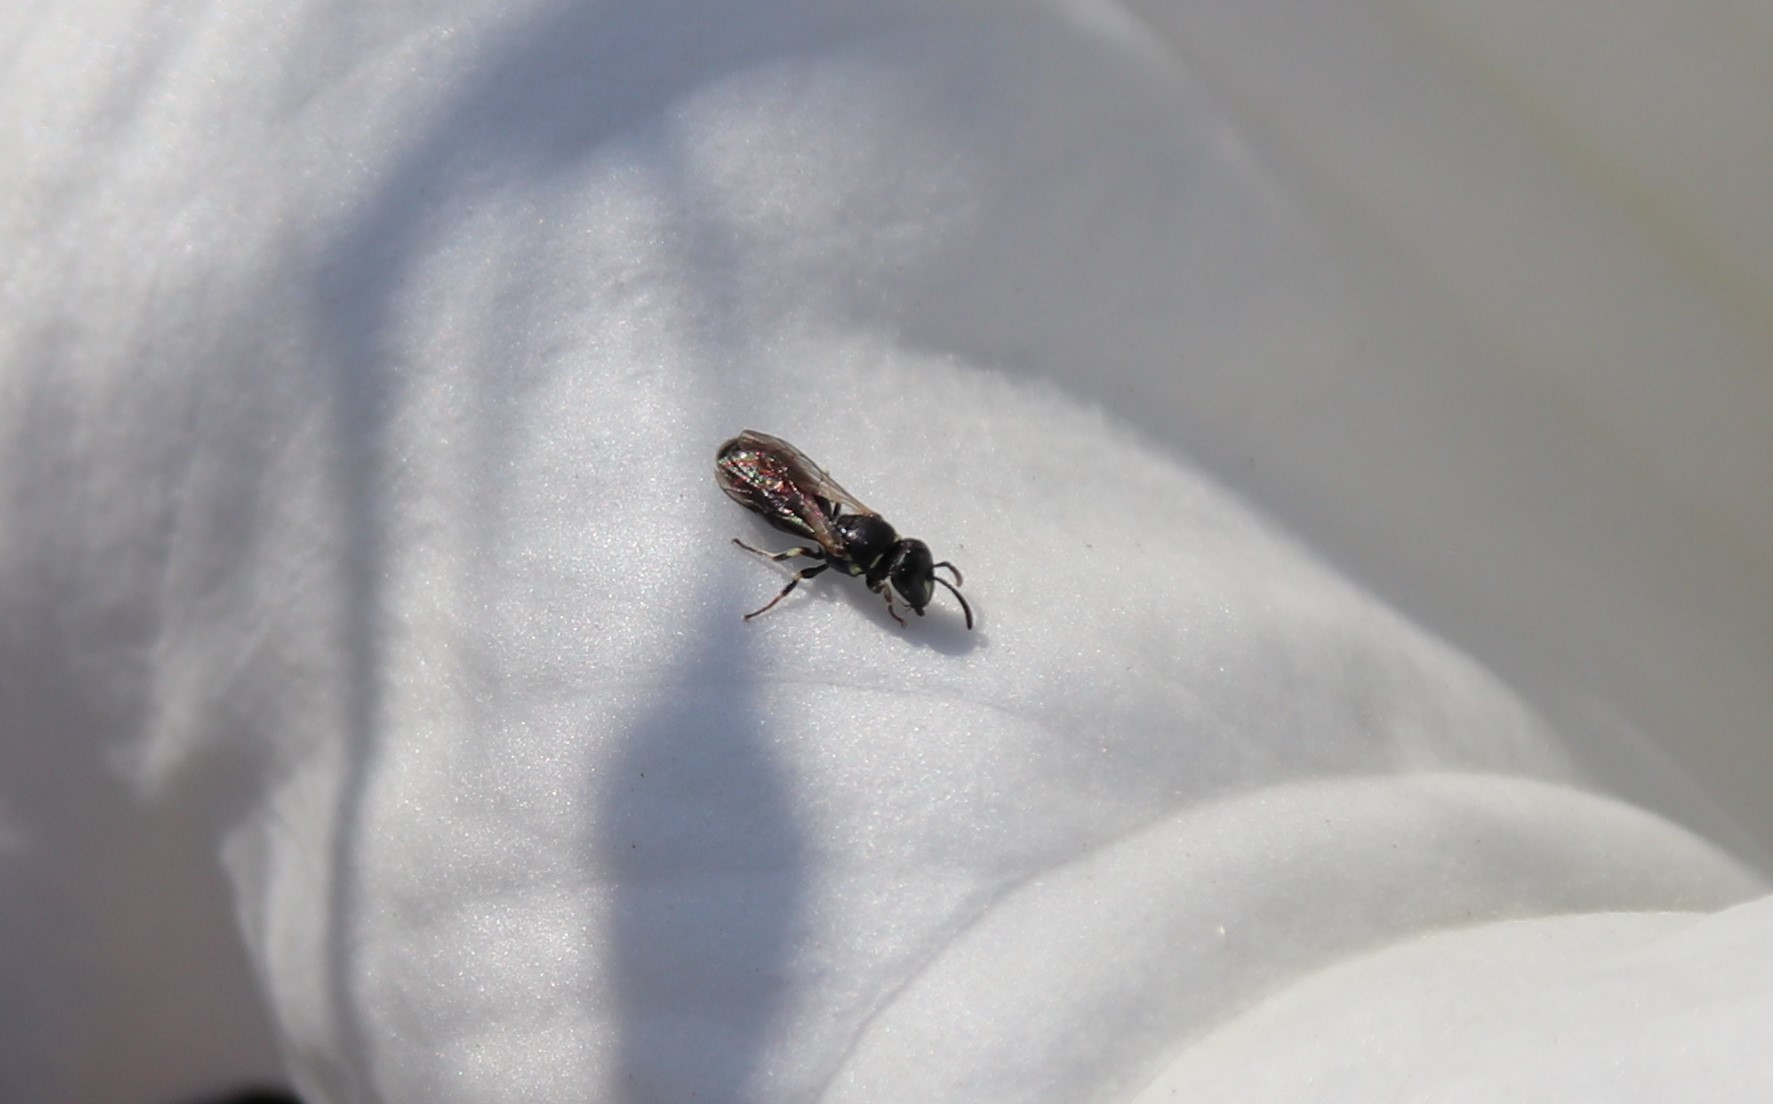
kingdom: Animalia
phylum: Arthropoda
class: Insecta
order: Hymenoptera
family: Colletidae
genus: Hylaeus
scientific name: Hylaeus
